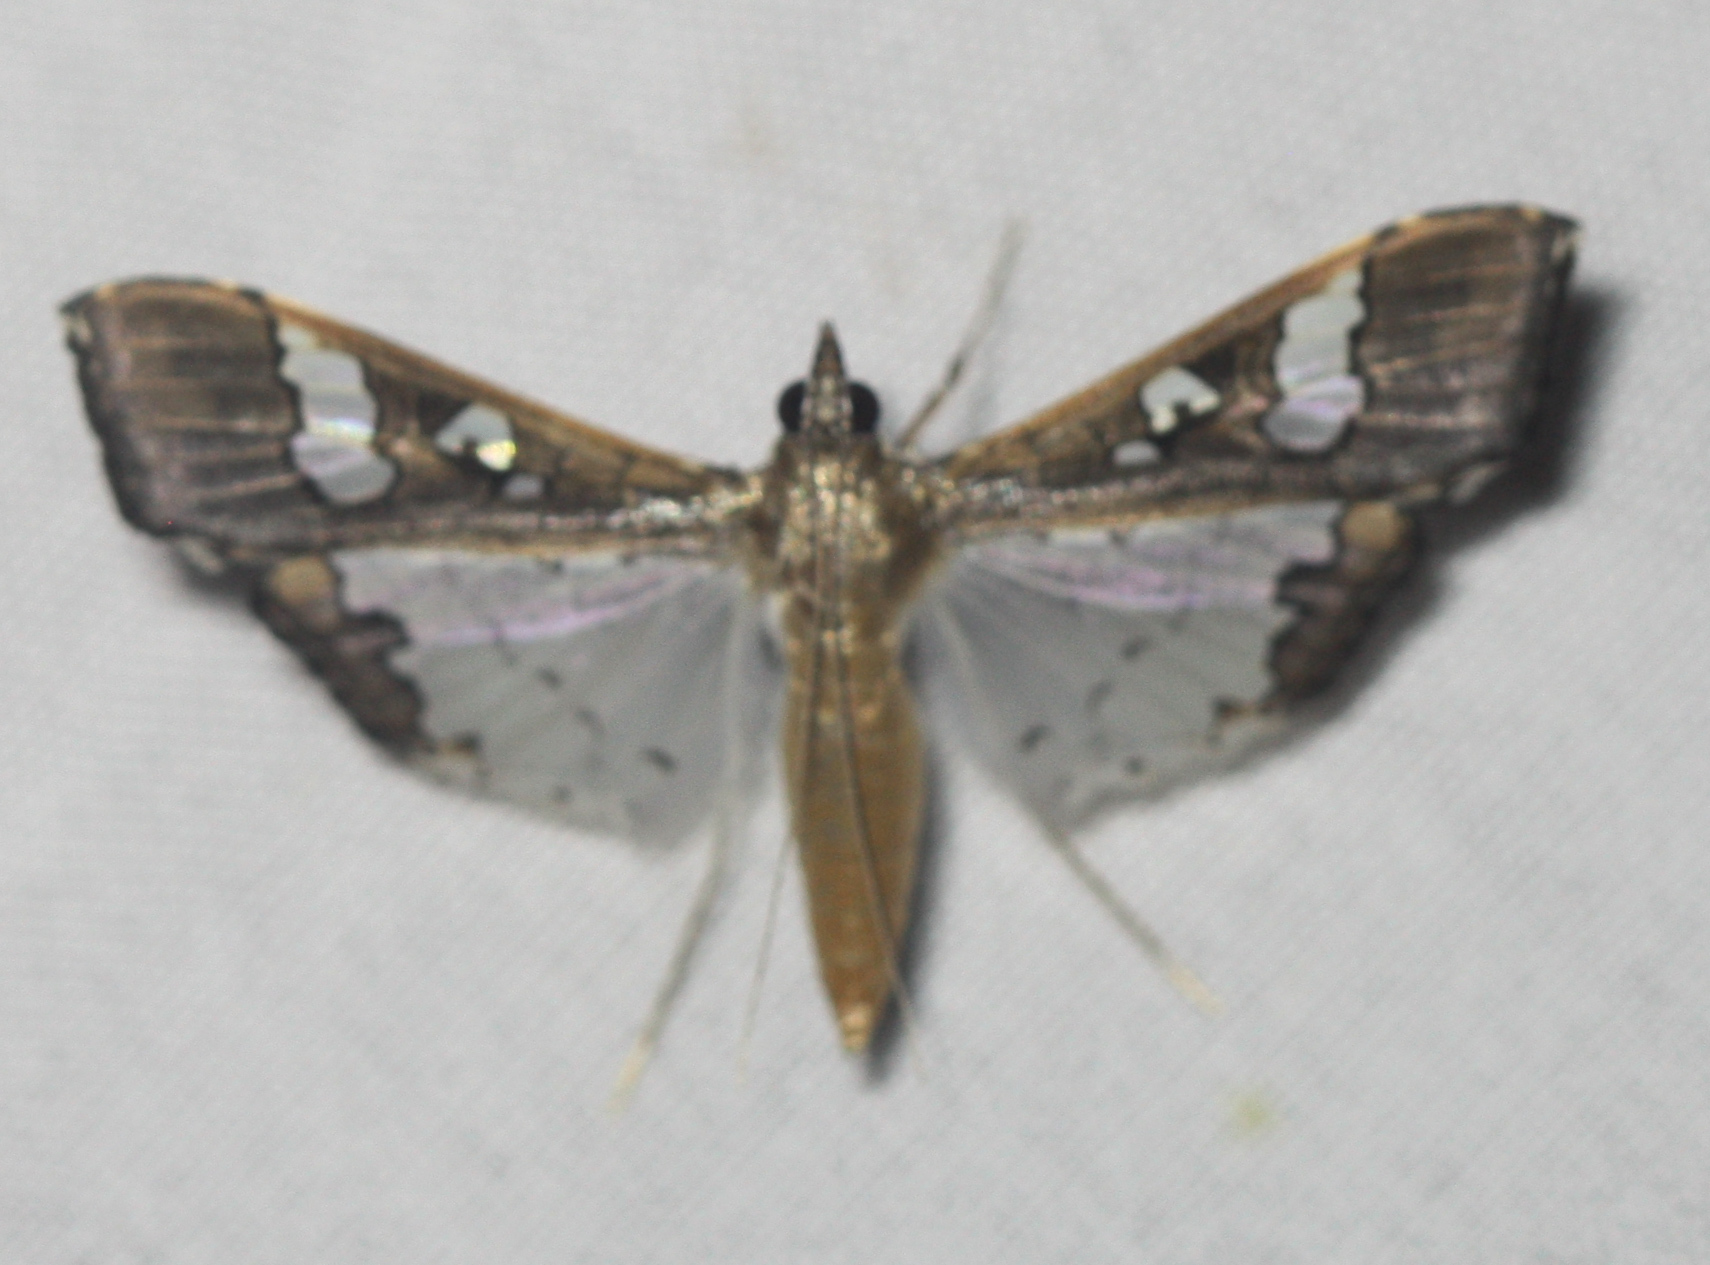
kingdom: Animalia
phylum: Arthropoda
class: Insecta
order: Lepidoptera
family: Crambidae
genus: Maruca
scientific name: Maruca vitrata
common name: Maruca pod borer
